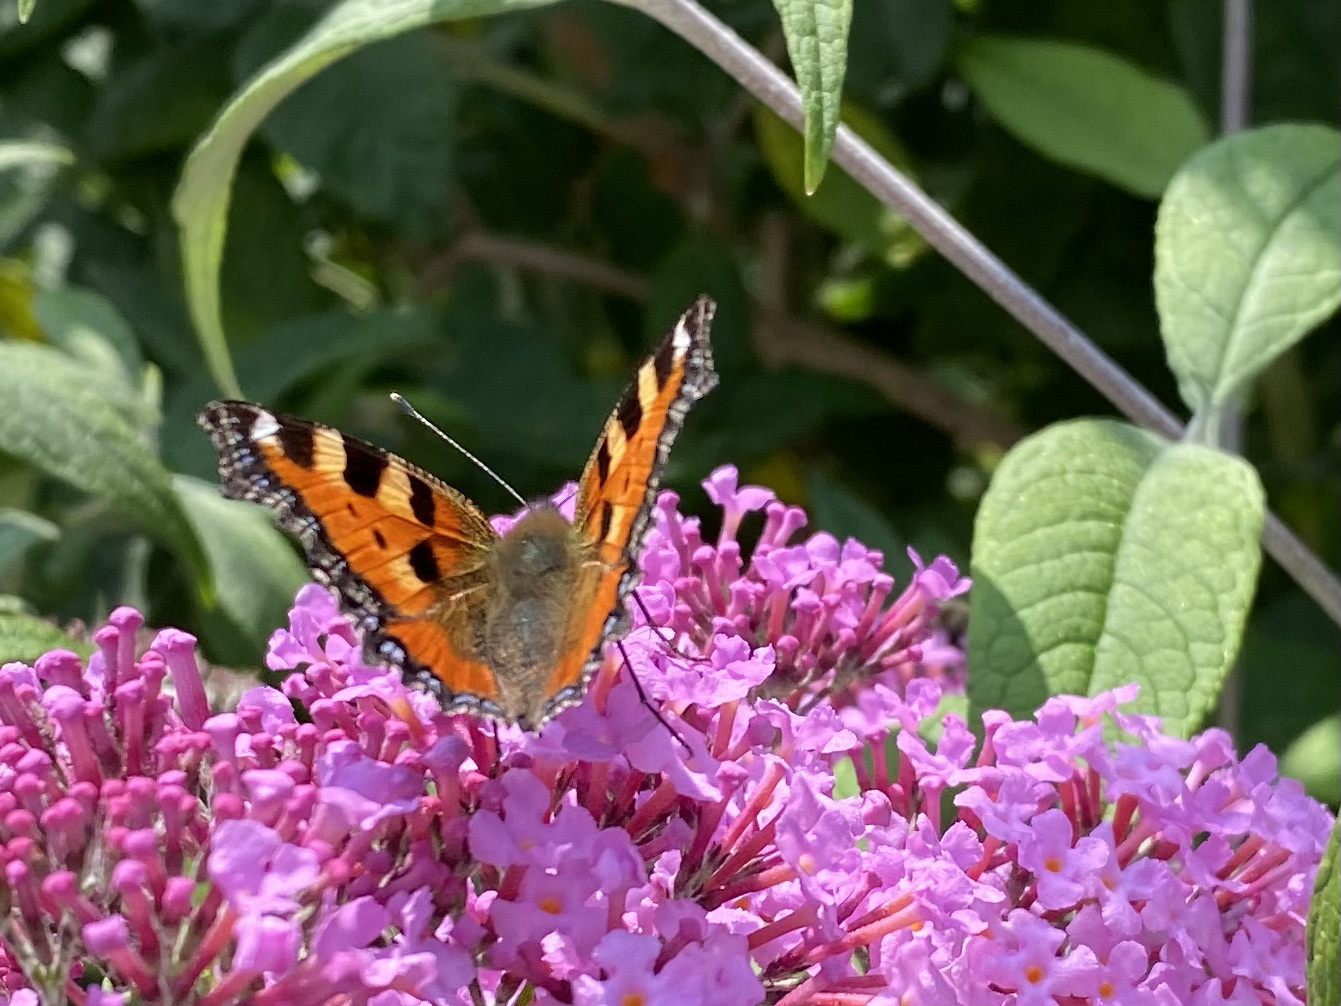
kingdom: Animalia
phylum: Arthropoda
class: Insecta
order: Lepidoptera
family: Nymphalidae
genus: Aglais
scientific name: Aglais urticae
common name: Small tortoiseshell
